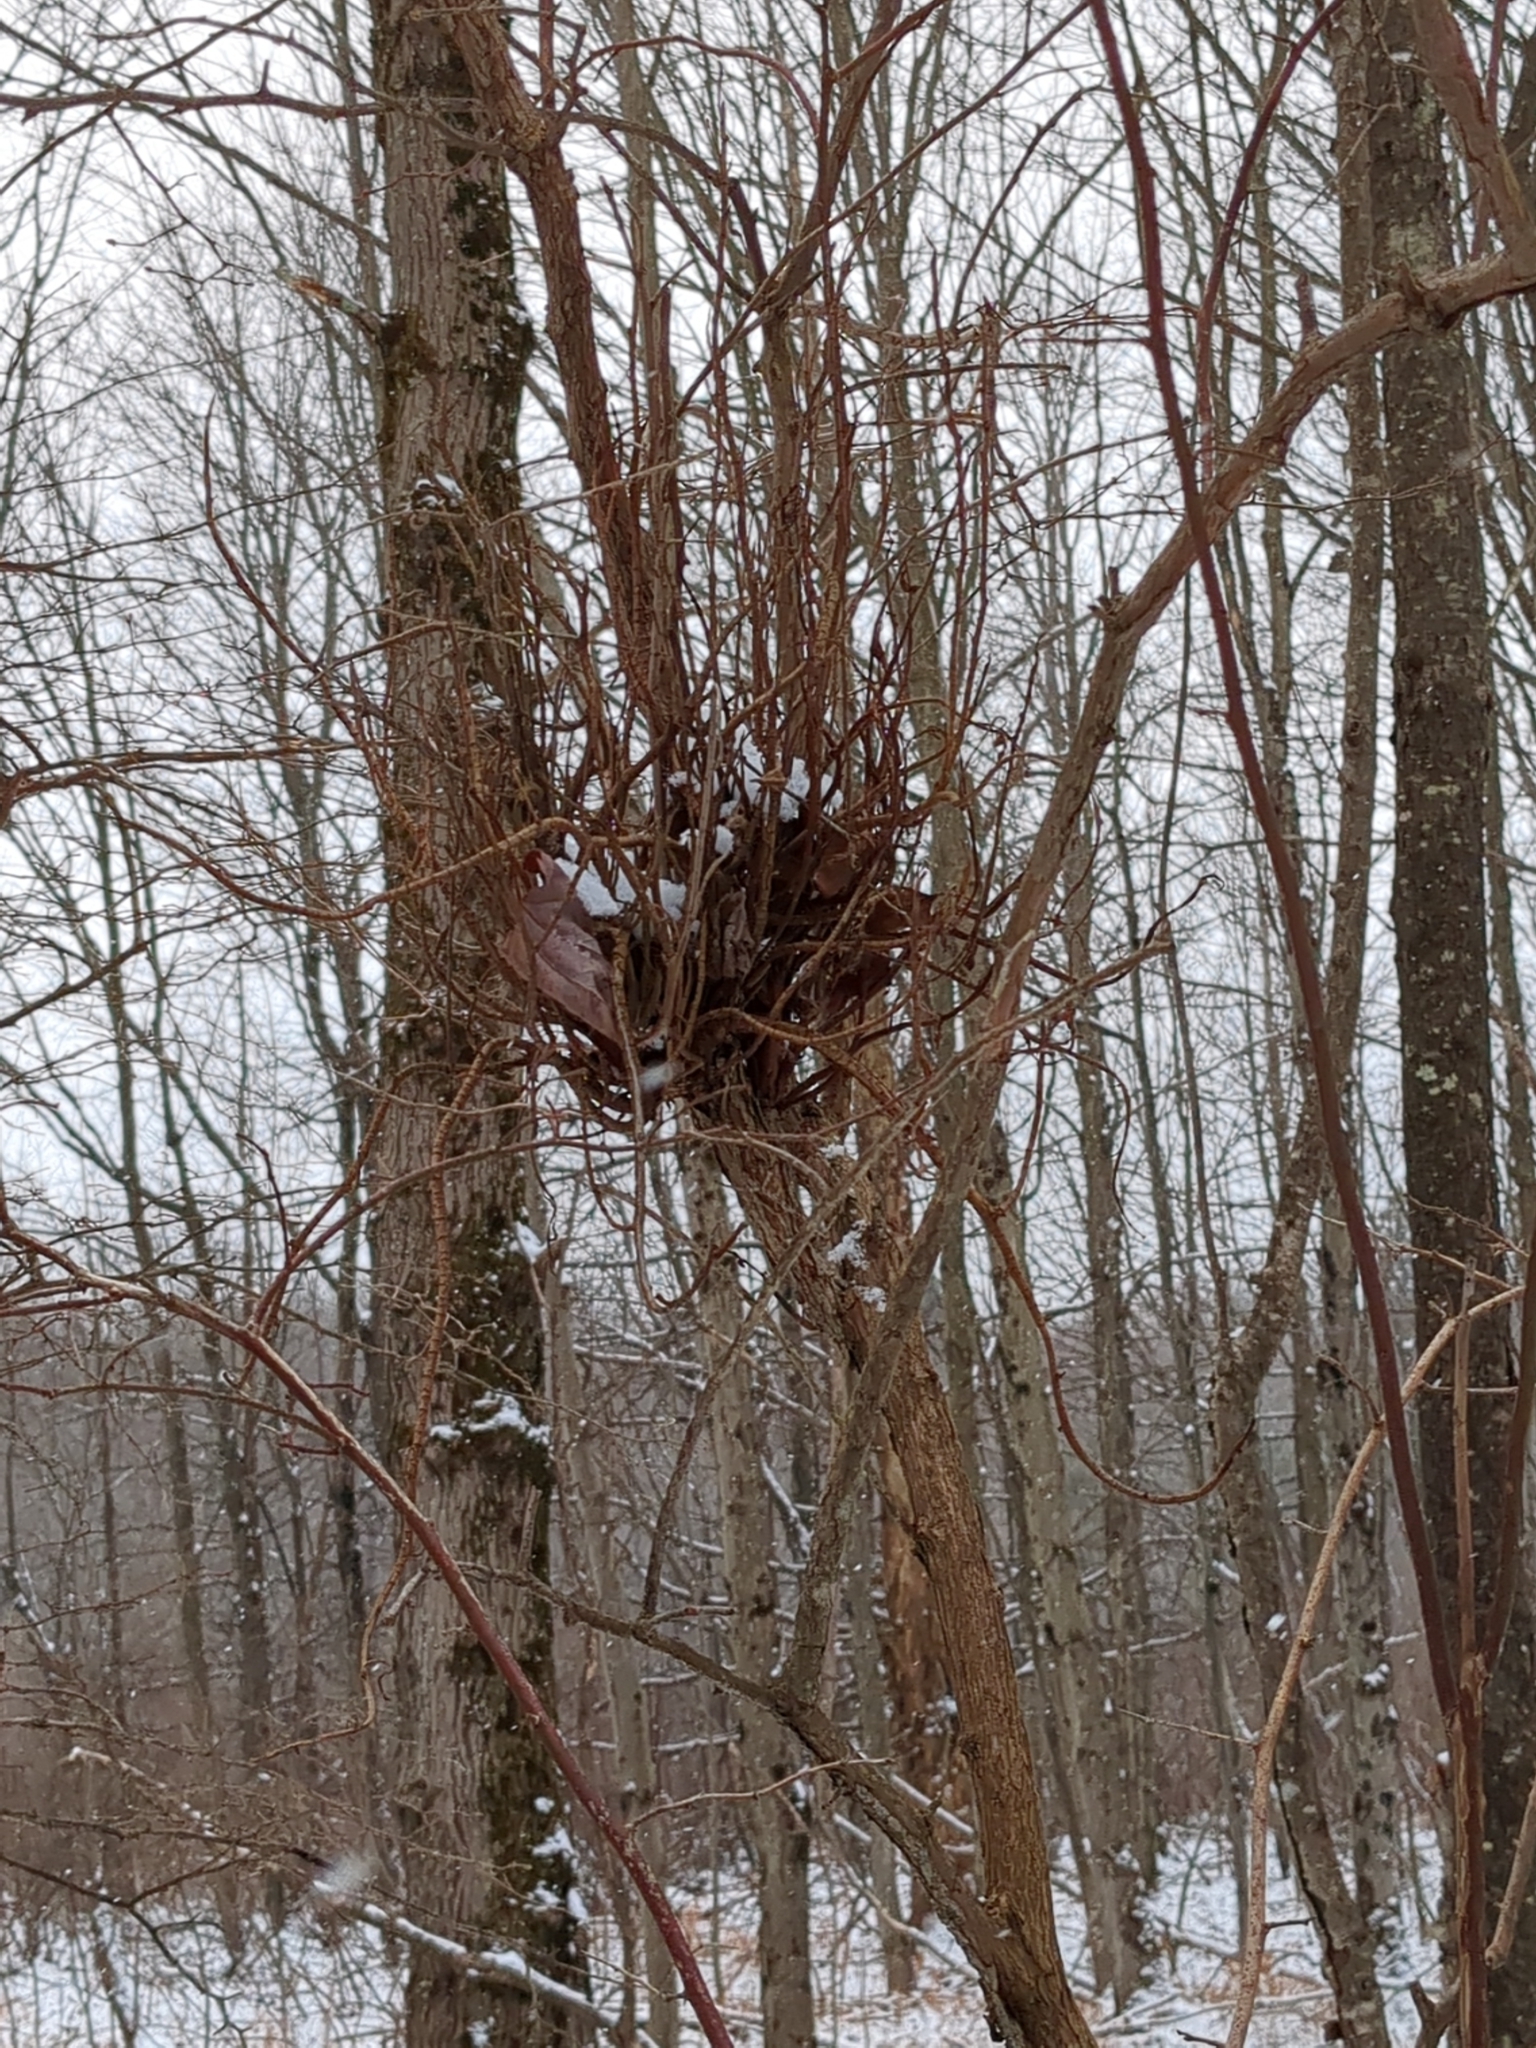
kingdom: Fungi
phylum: Basidiomycota
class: Pucciniomycetes
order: Pucciniales
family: Pucciniastraceae
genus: Calyptospora
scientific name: Calyptospora columnaris
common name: Huckleberry broom rust fungus
